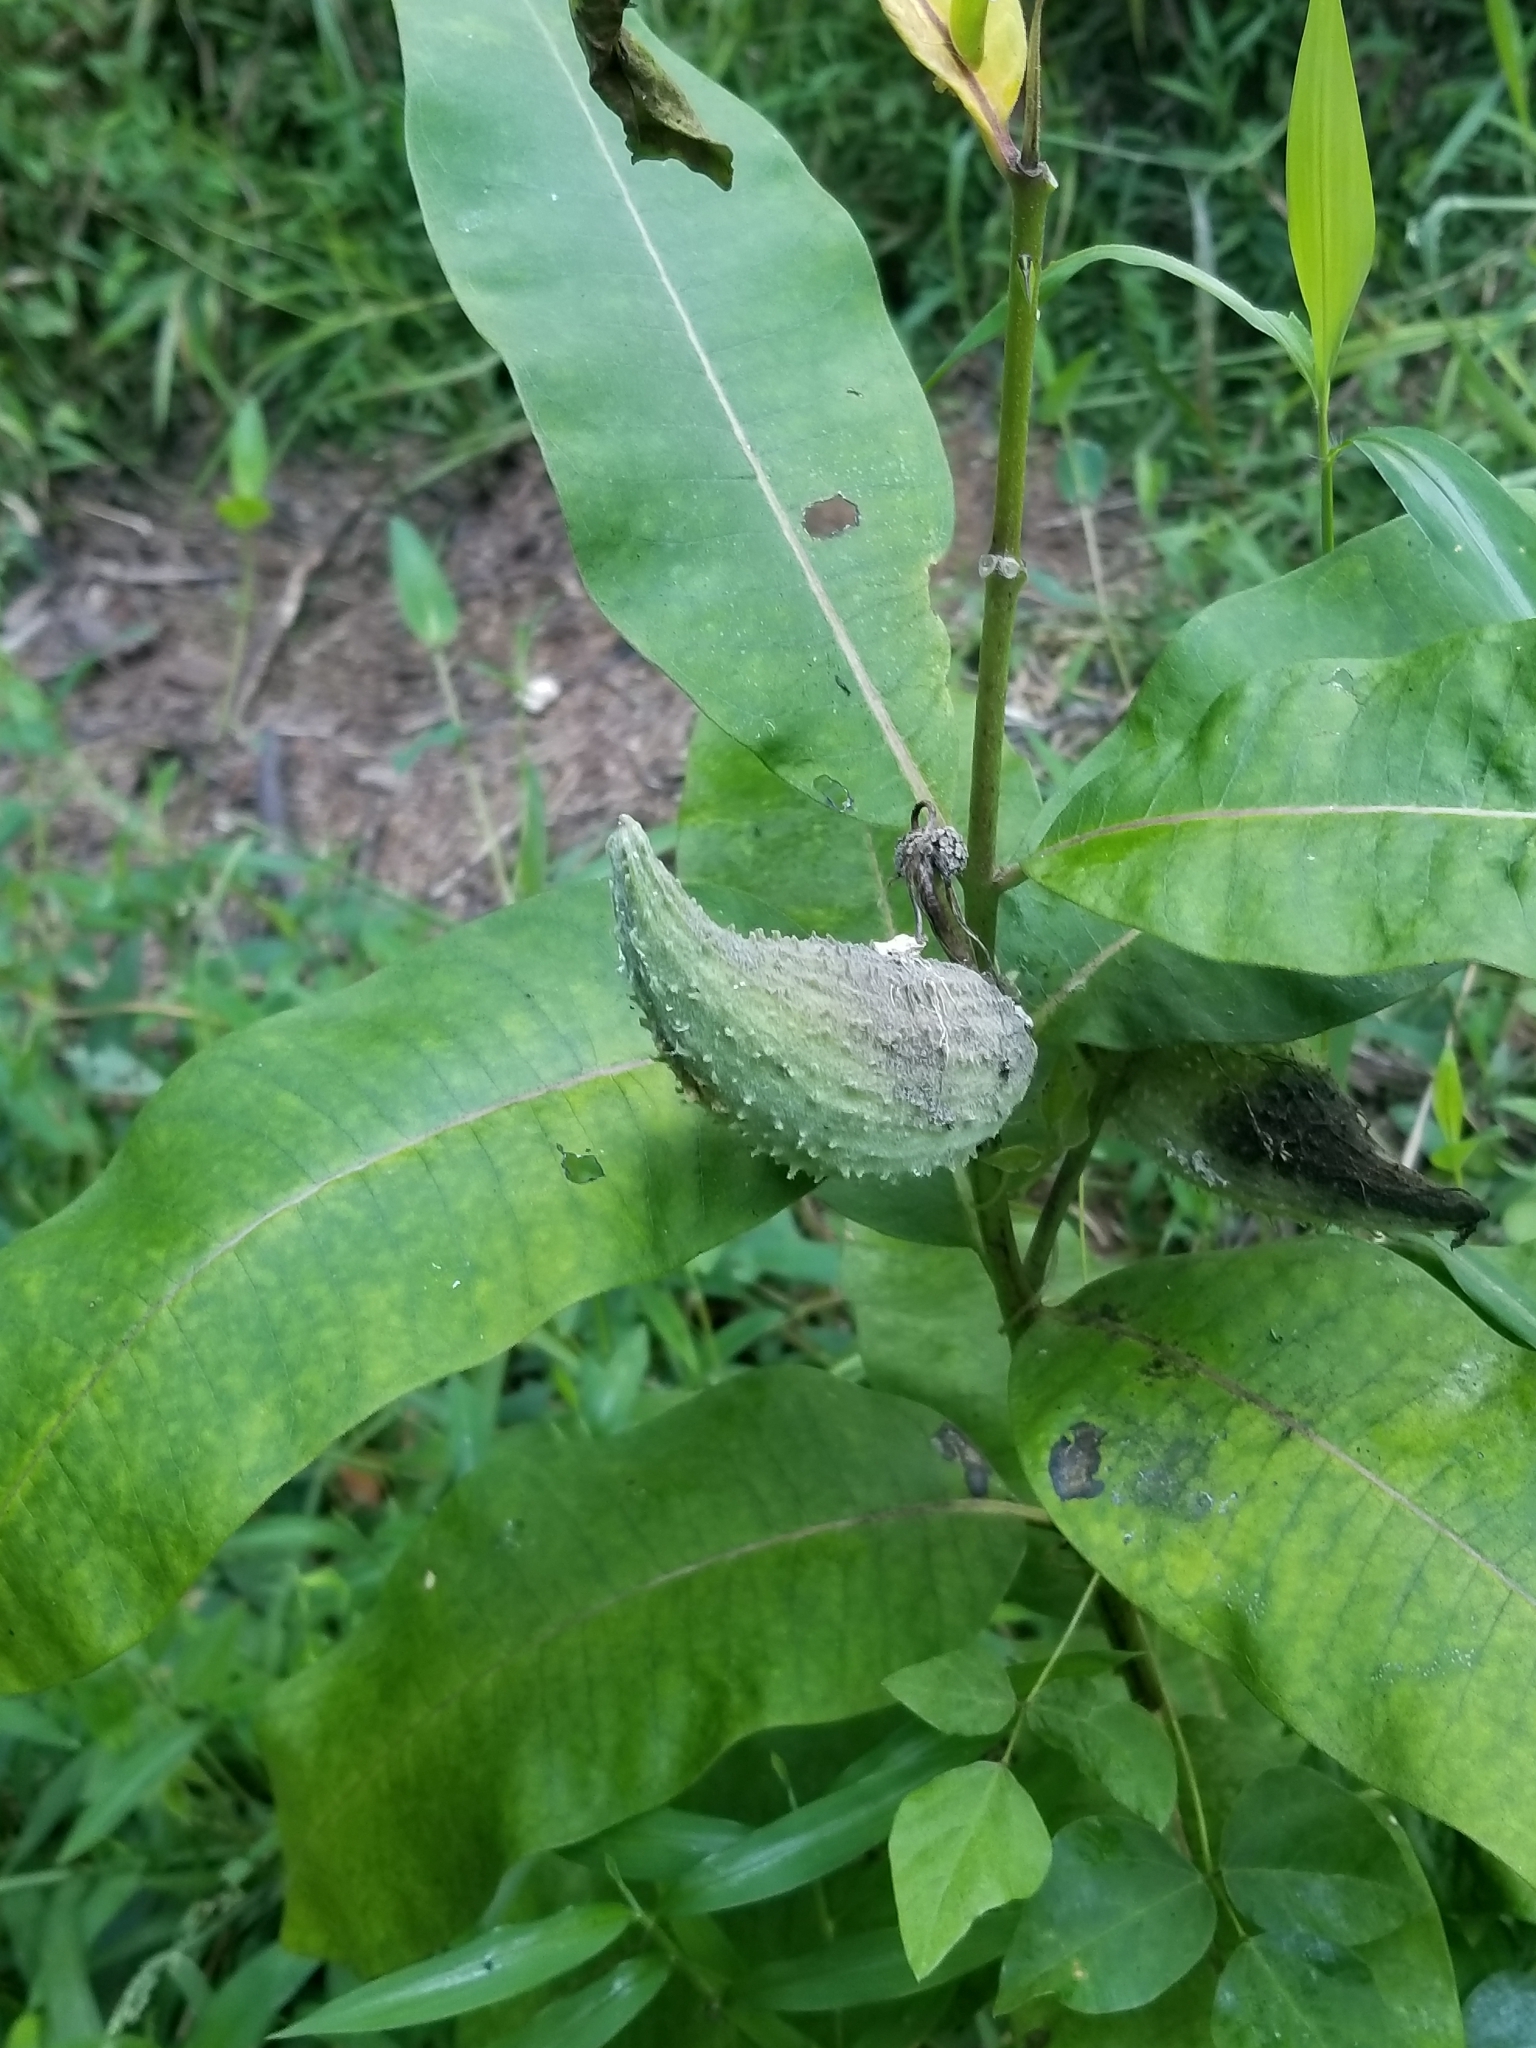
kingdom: Plantae
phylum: Tracheophyta
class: Magnoliopsida
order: Gentianales
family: Apocynaceae
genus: Asclepias
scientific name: Asclepias syriaca
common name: Common milkweed
